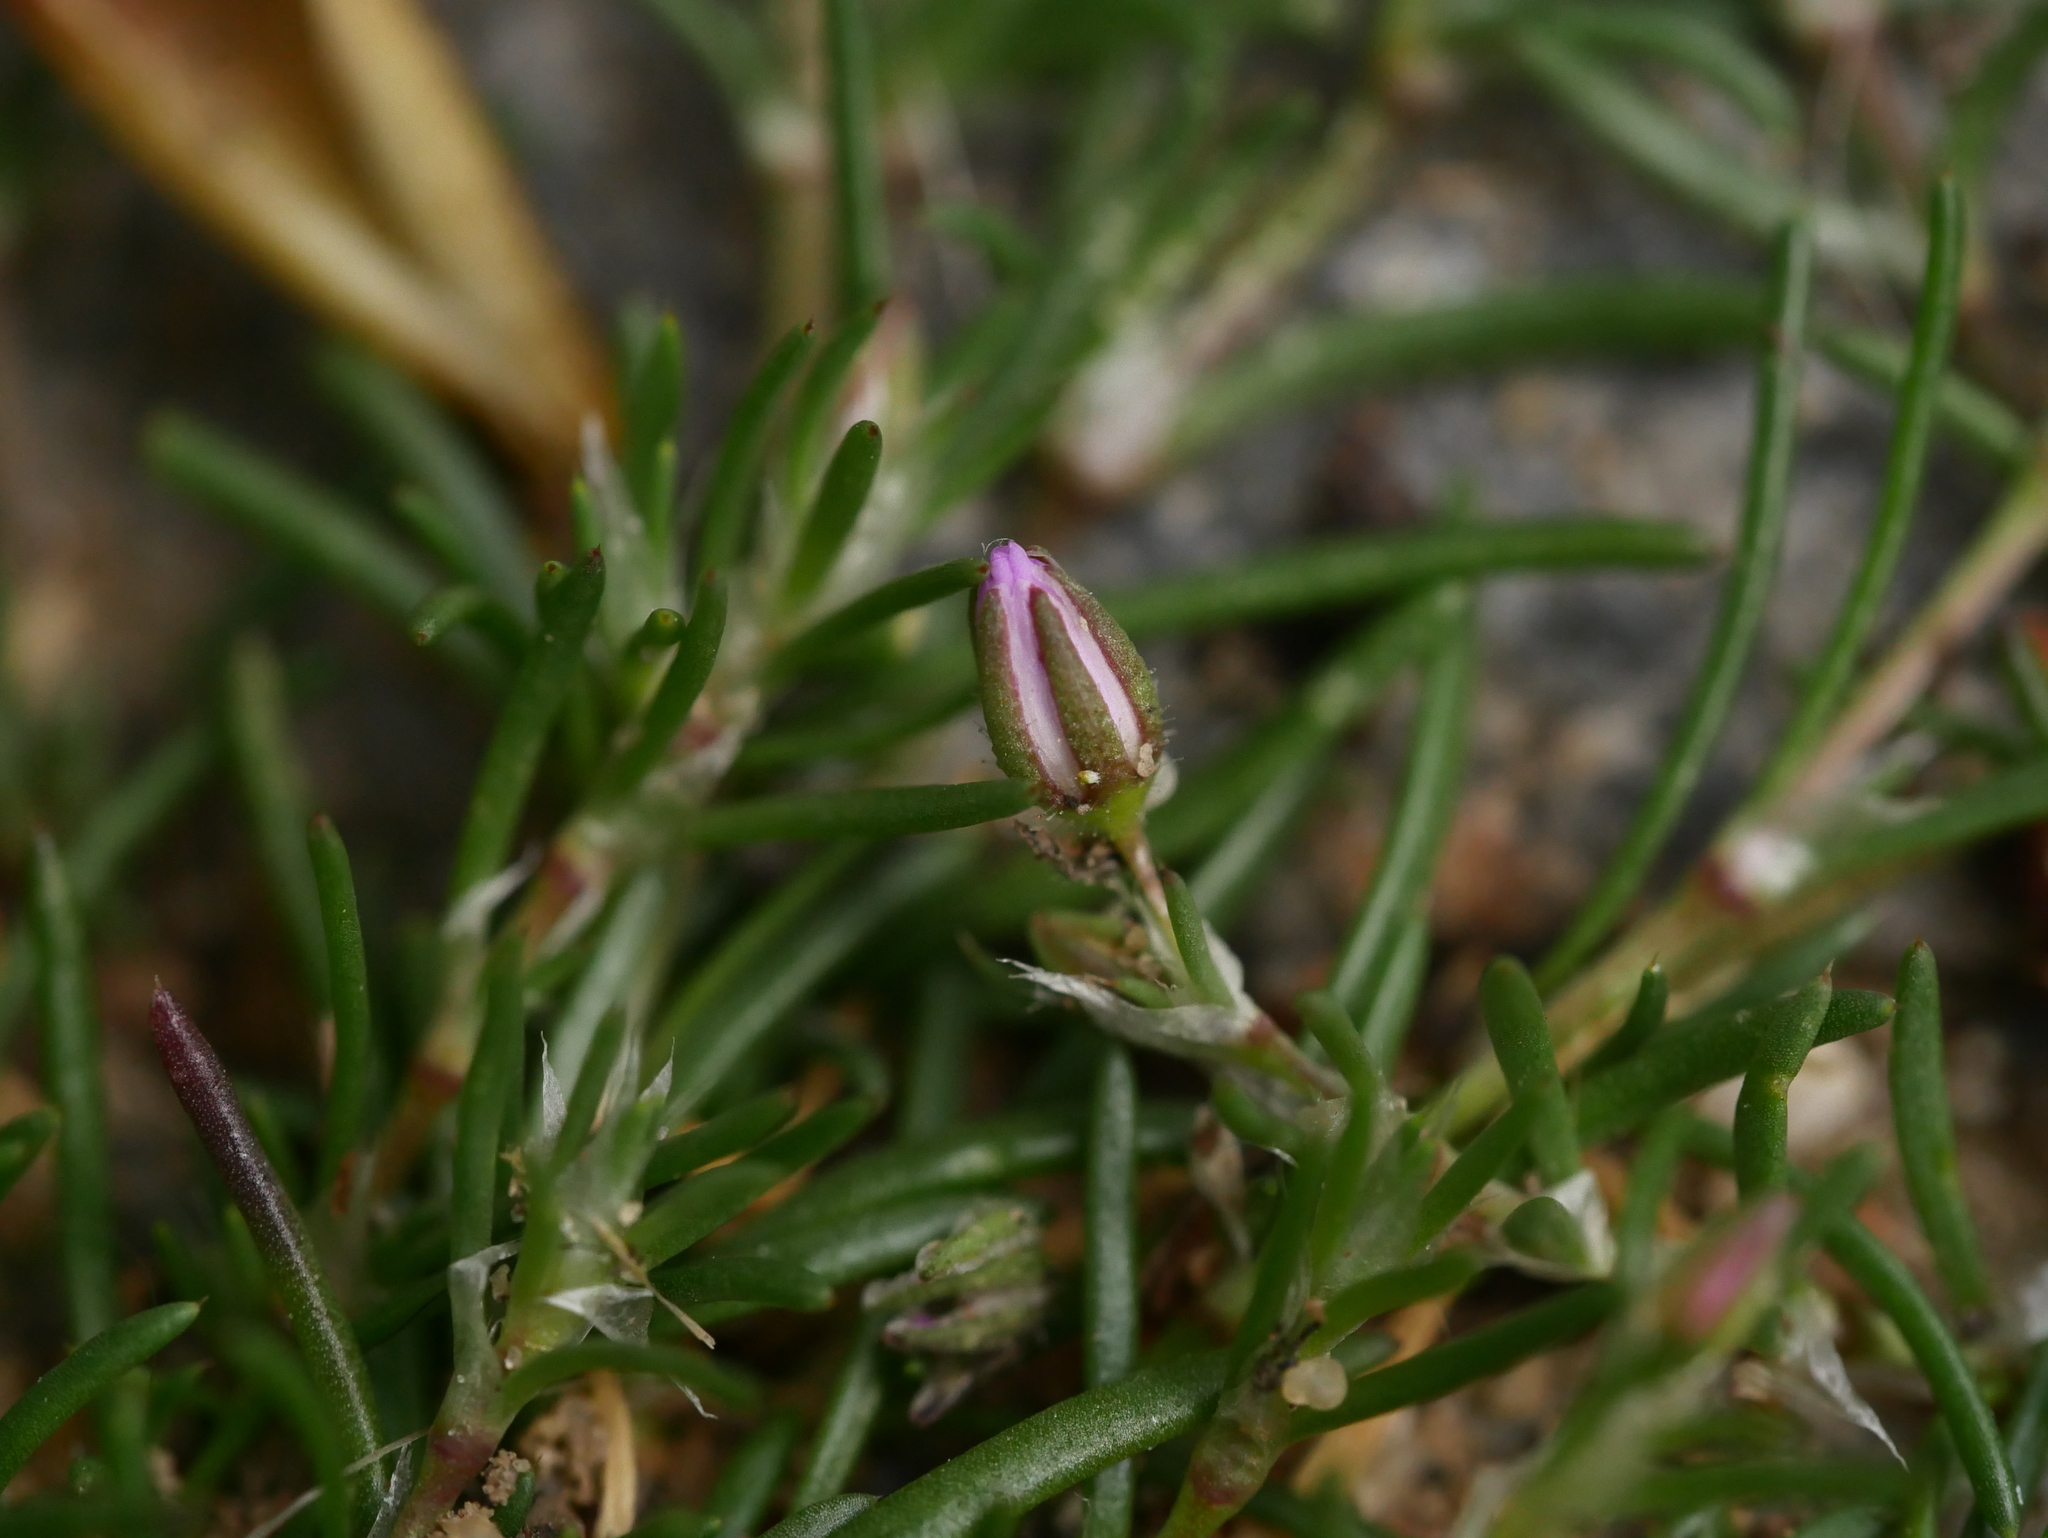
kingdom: Plantae
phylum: Tracheophyta
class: Magnoliopsida
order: Caryophyllales
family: Caryophyllaceae
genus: Spergularia
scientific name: Spergularia rubra
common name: Red sand-spurrey
